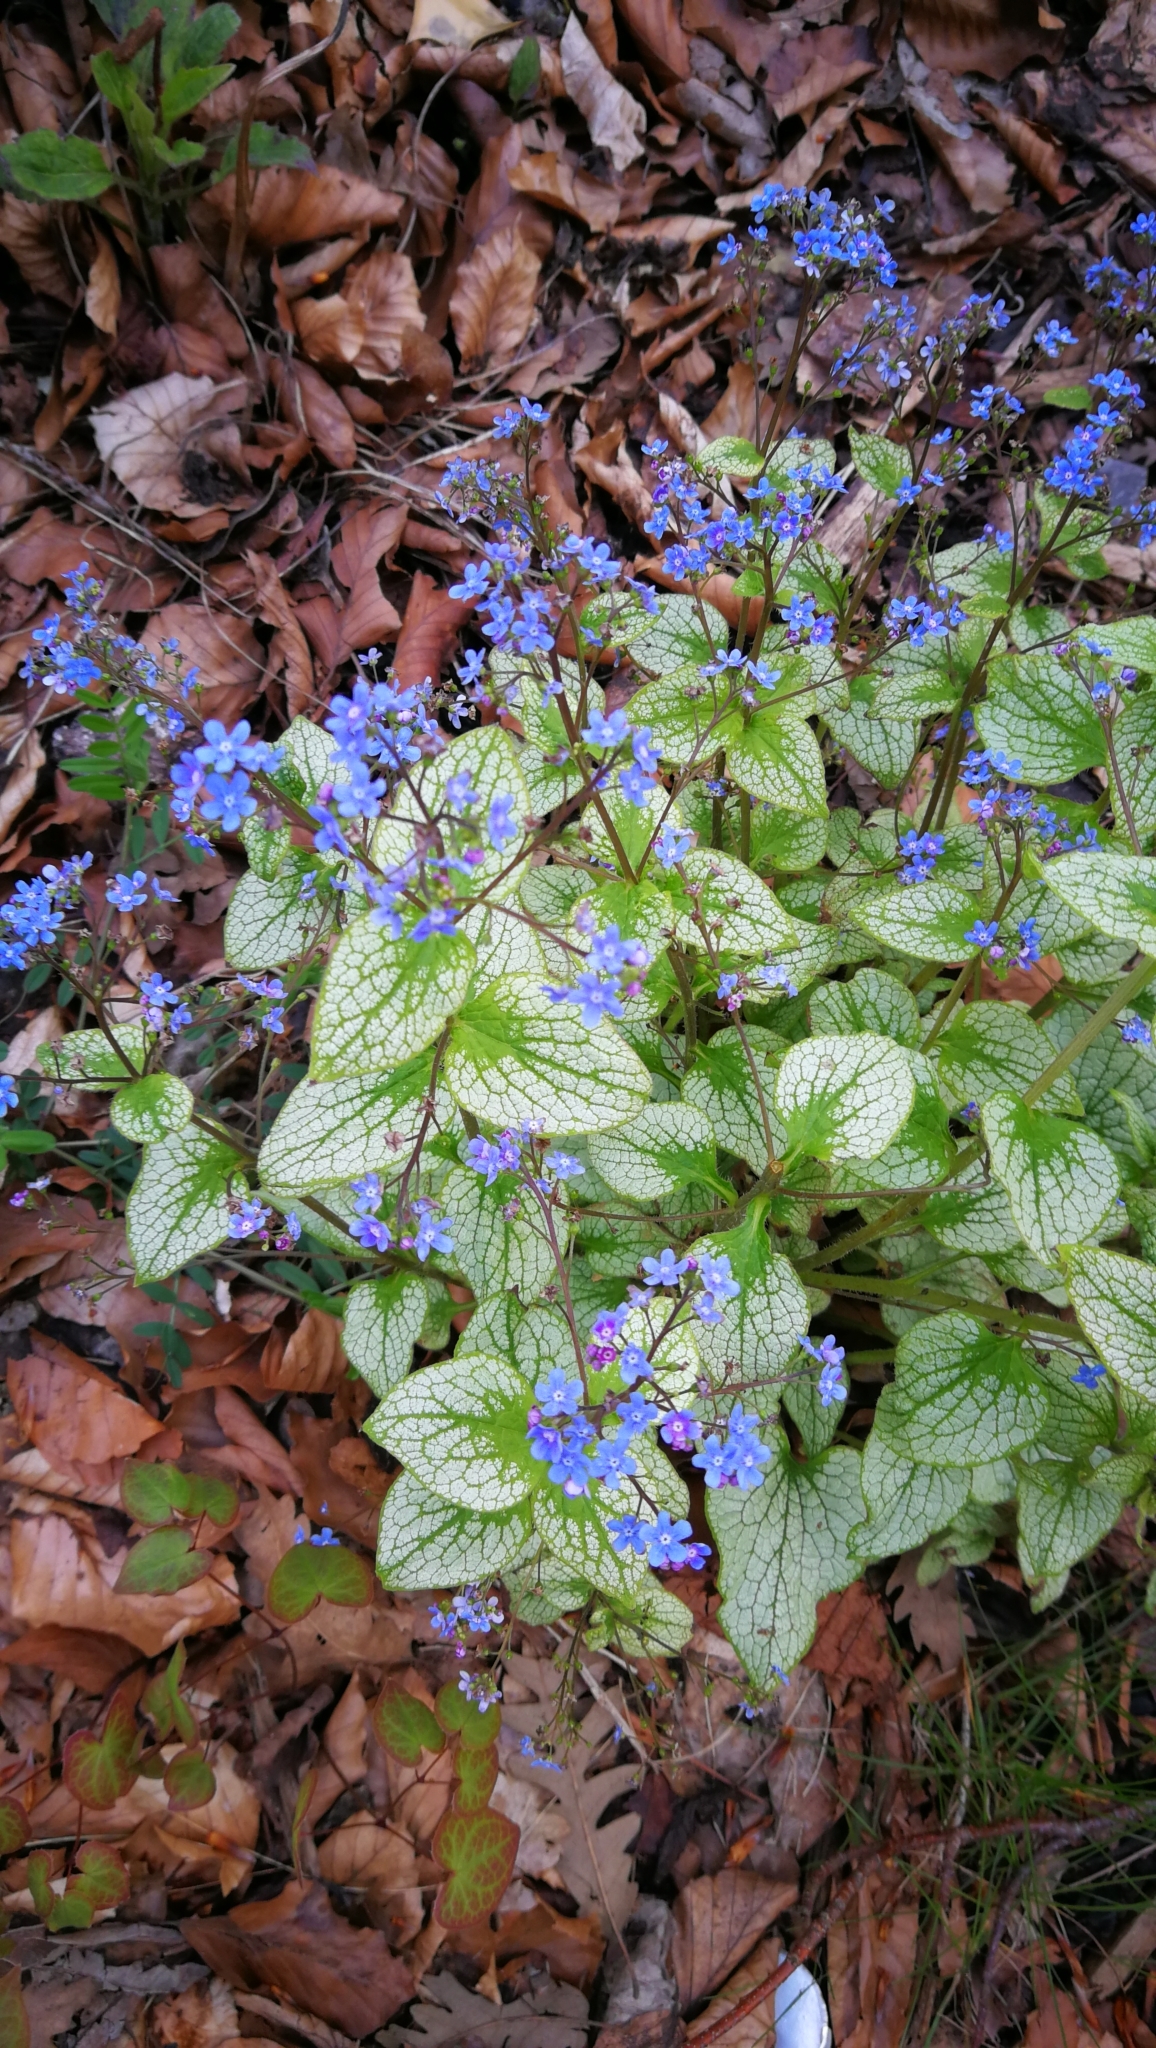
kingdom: Plantae
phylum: Tracheophyta
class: Magnoliopsida
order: Boraginales
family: Boraginaceae
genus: Brunnera
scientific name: Brunnera macrophylla
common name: Great forget-me-not
